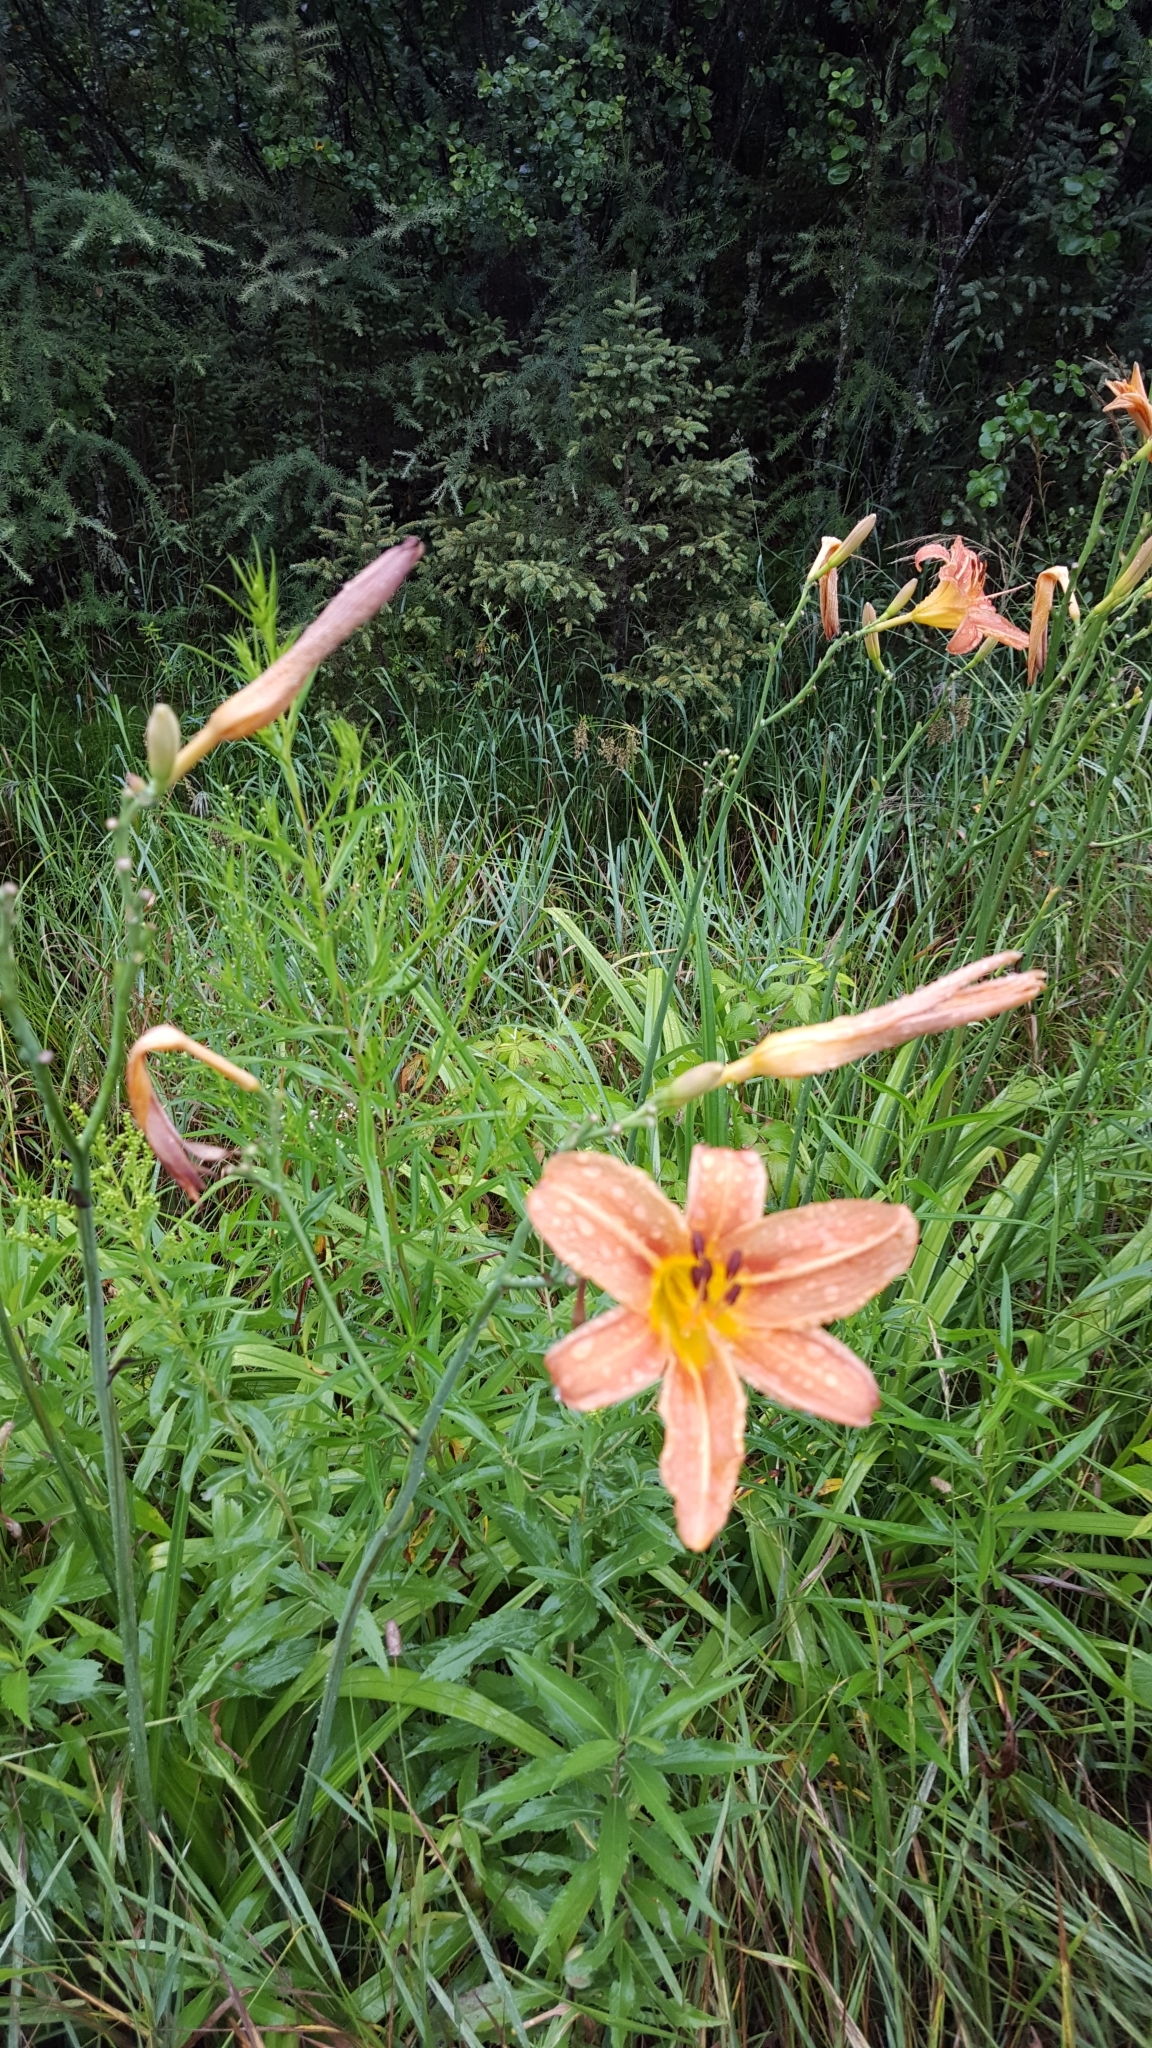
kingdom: Plantae
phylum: Tracheophyta
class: Liliopsida
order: Asparagales
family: Asphodelaceae
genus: Hemerocallis
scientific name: Hemerocallis fulva
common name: Orange day-lily
